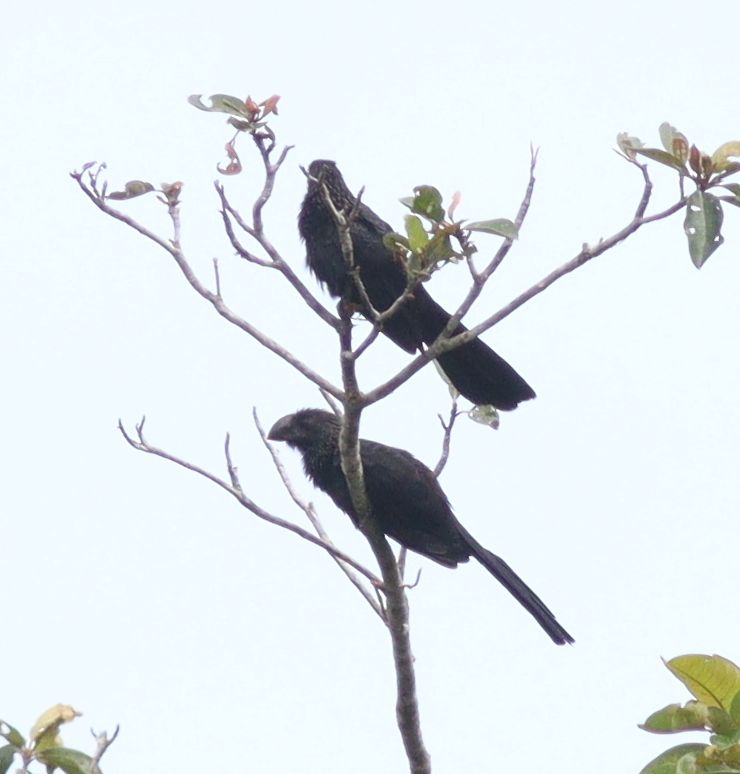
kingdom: Animalia
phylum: Chordata
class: Aves
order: Cuculiformes
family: Cuculidae
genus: Crotophaga
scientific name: Crotophaga ani
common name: Smooth-billed ani
